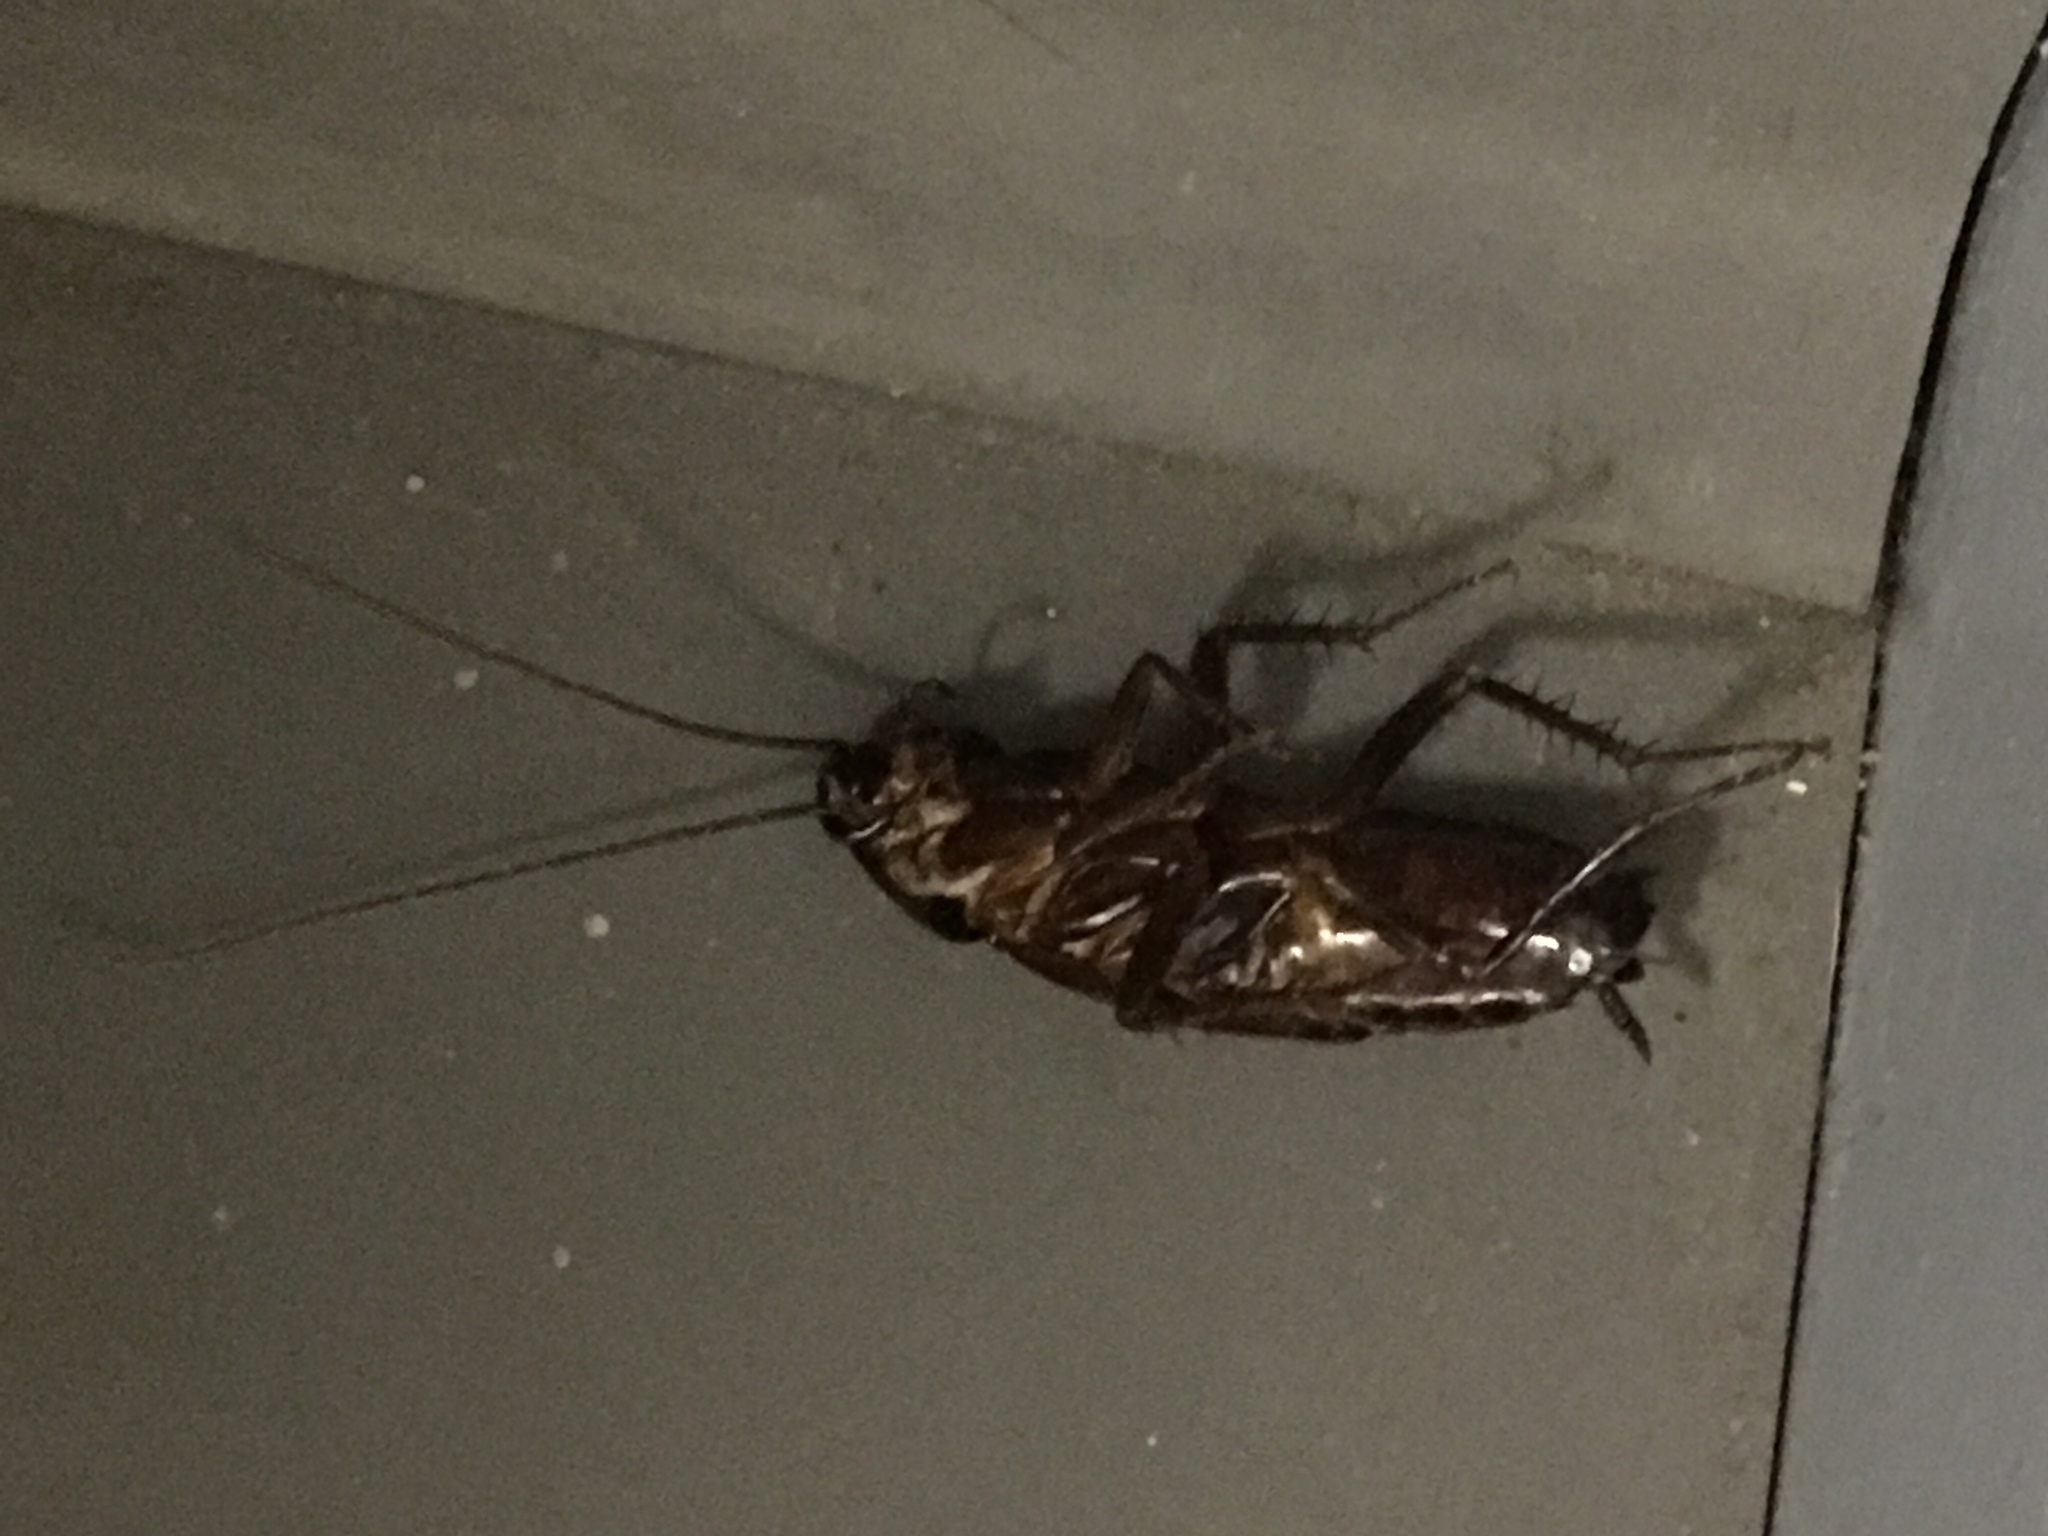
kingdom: Animalia
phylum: Arthropoda
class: Insecta
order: Blattodea
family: Blattidae
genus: Blatta
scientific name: Blatta orientalis
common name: Oriental cockroach
